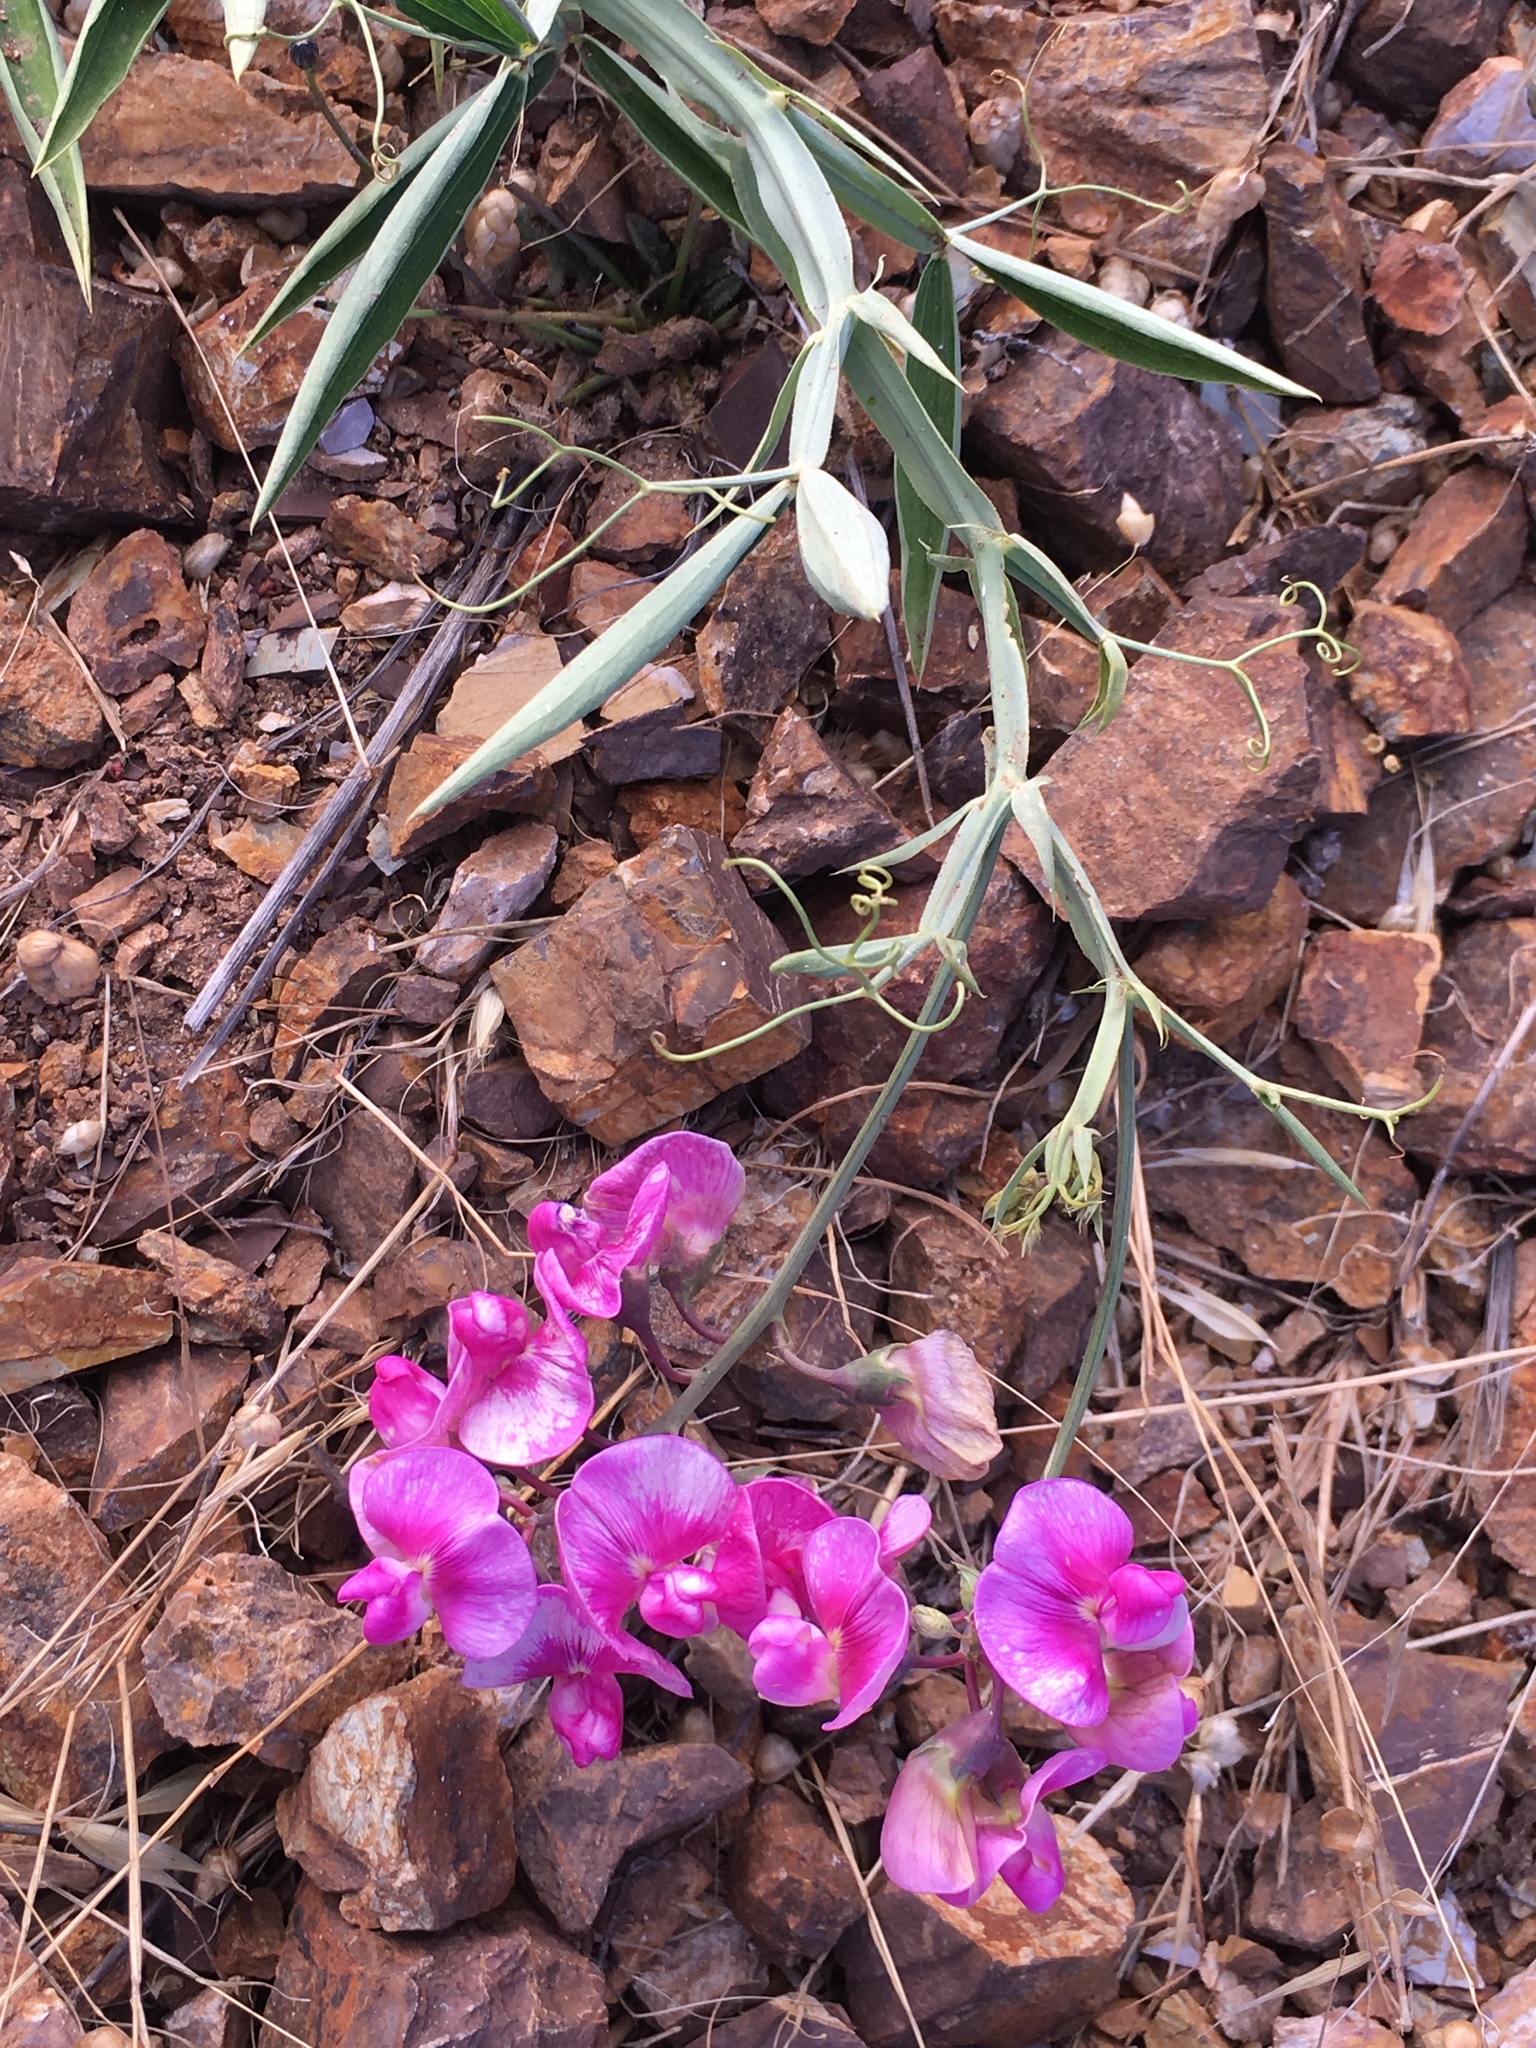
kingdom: Plantae
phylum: Tracheophyta
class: Magnoliopsida
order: Fabales
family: Fabaceae
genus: Lathyrus
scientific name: Lathyrus latifolius
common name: Perennial pea
